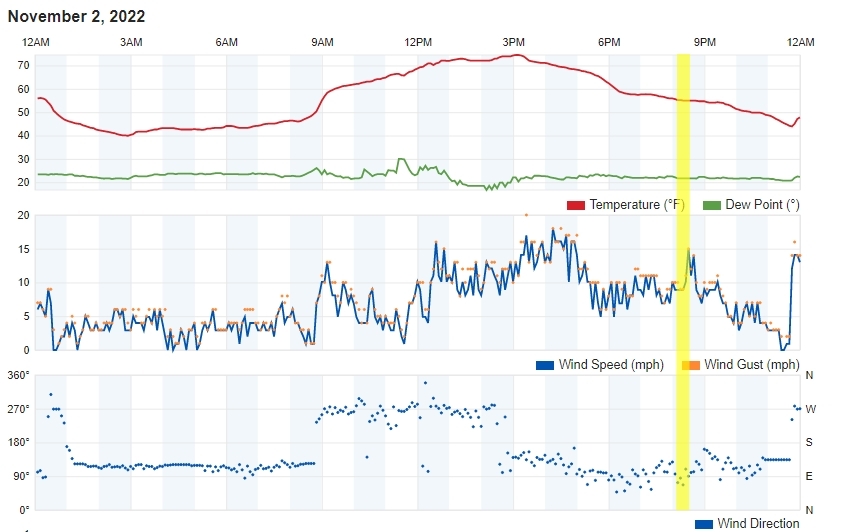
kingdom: Animalia
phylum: Chordata
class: Mammalia
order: Carnivora
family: Felidae
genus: Puma
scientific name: Puma concolor
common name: Puma
